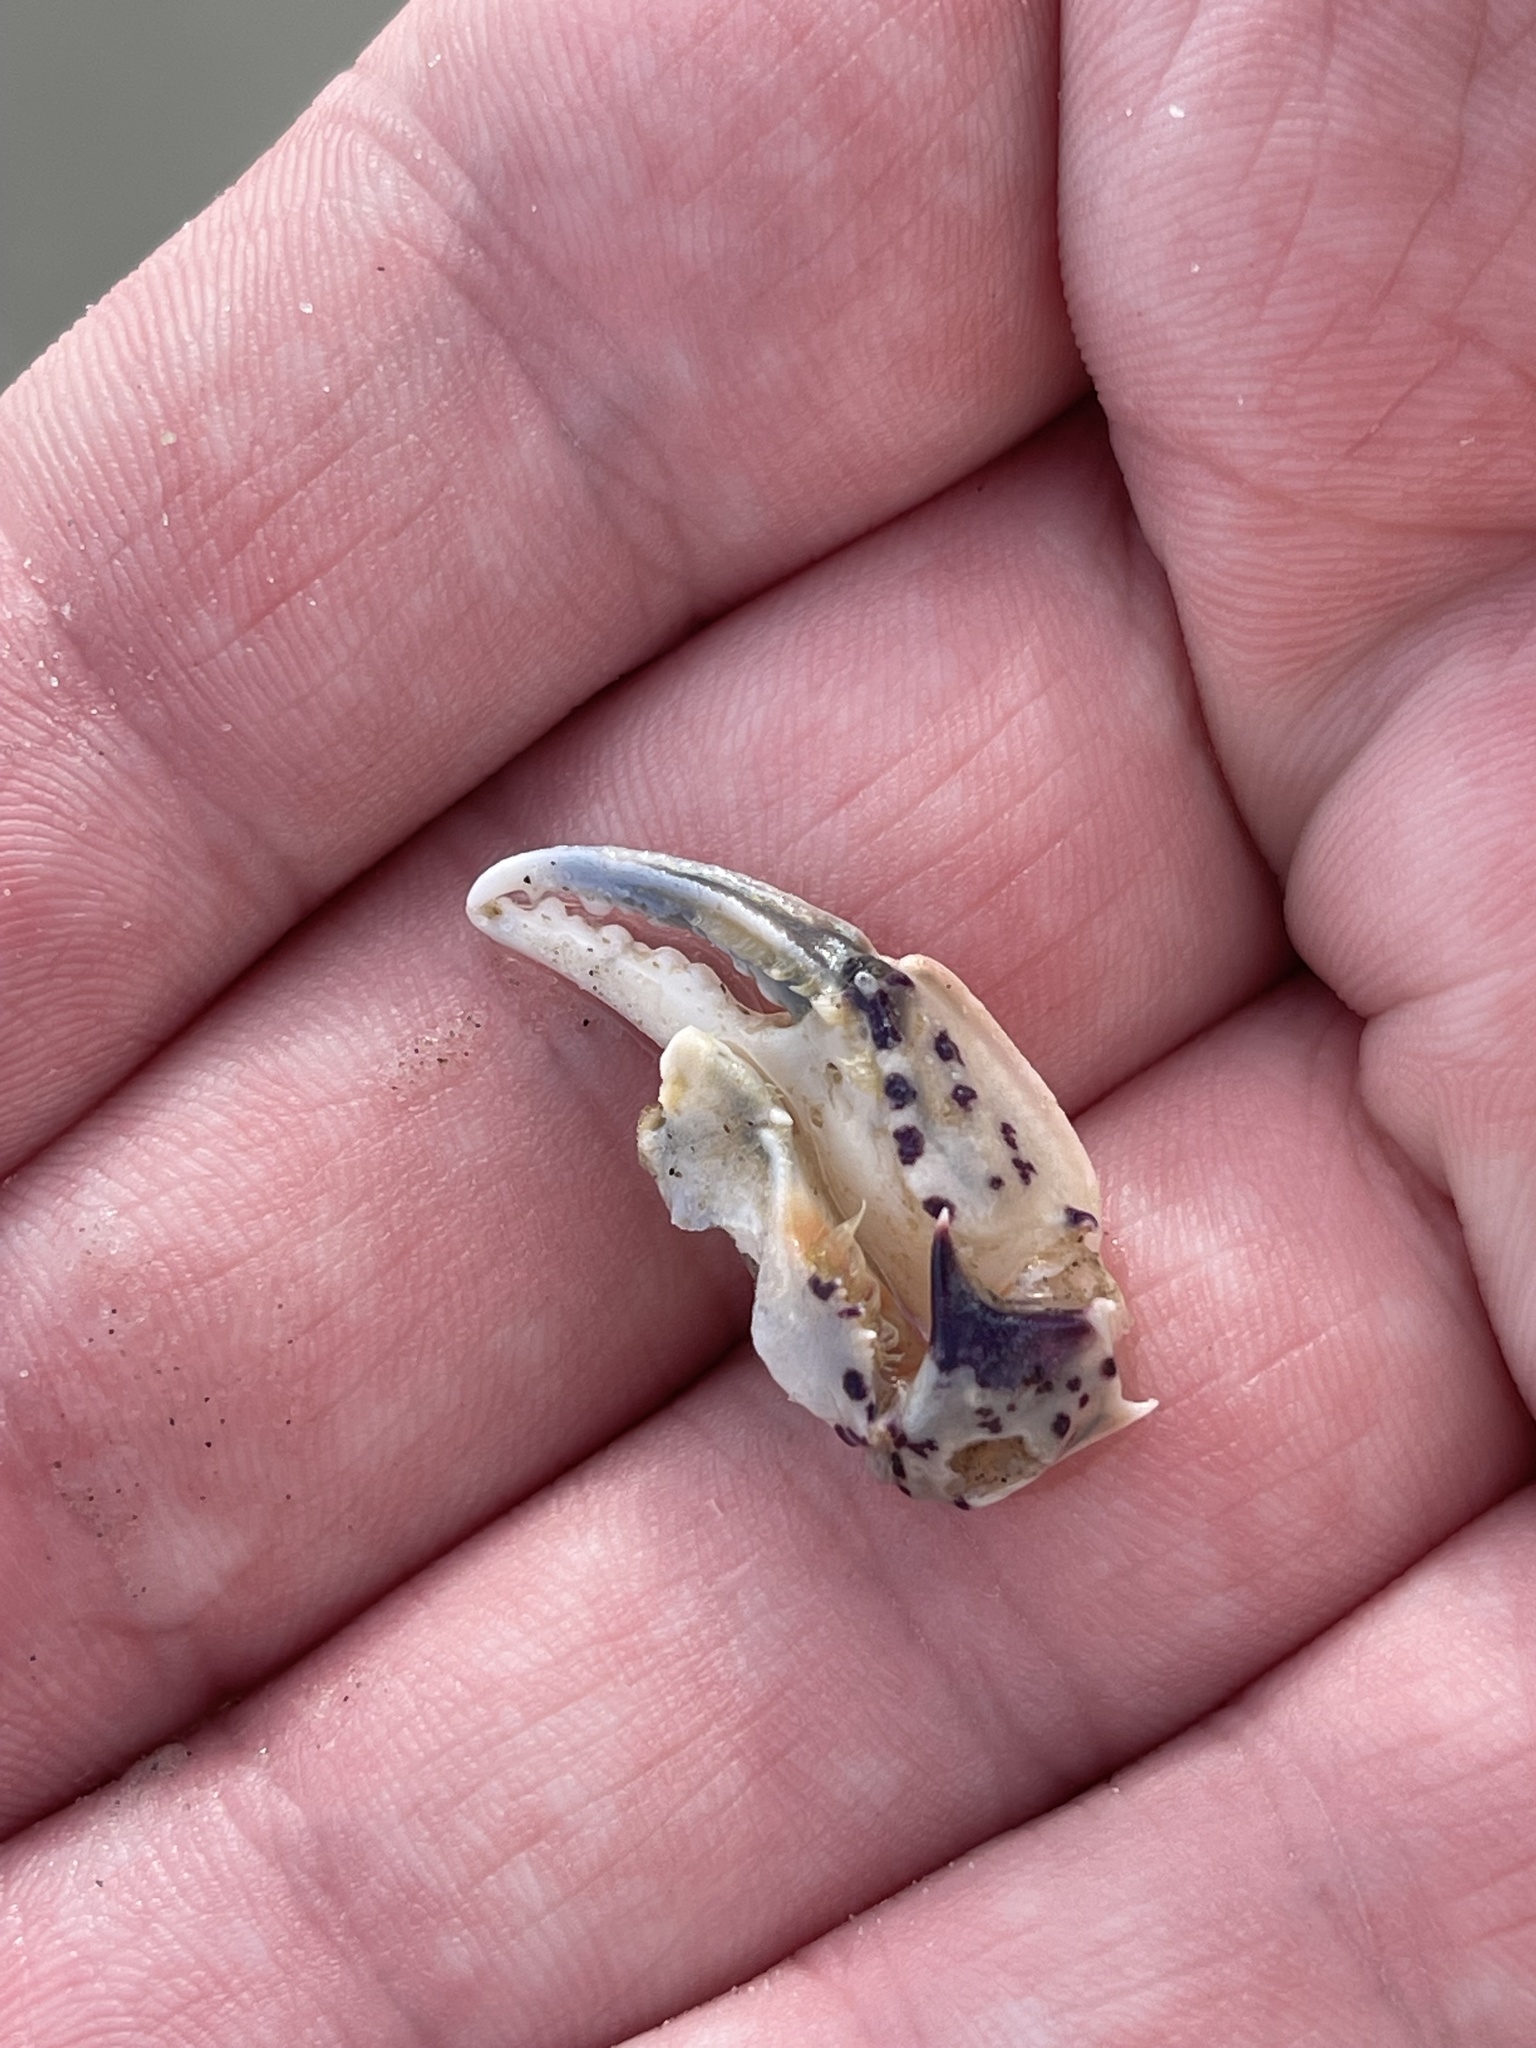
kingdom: Animalia
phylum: Arthropoda
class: Malacostraca
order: Decapoda
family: Ovalipidae
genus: Ovalipes
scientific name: Ovalipes ocellatus
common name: Lady crab
